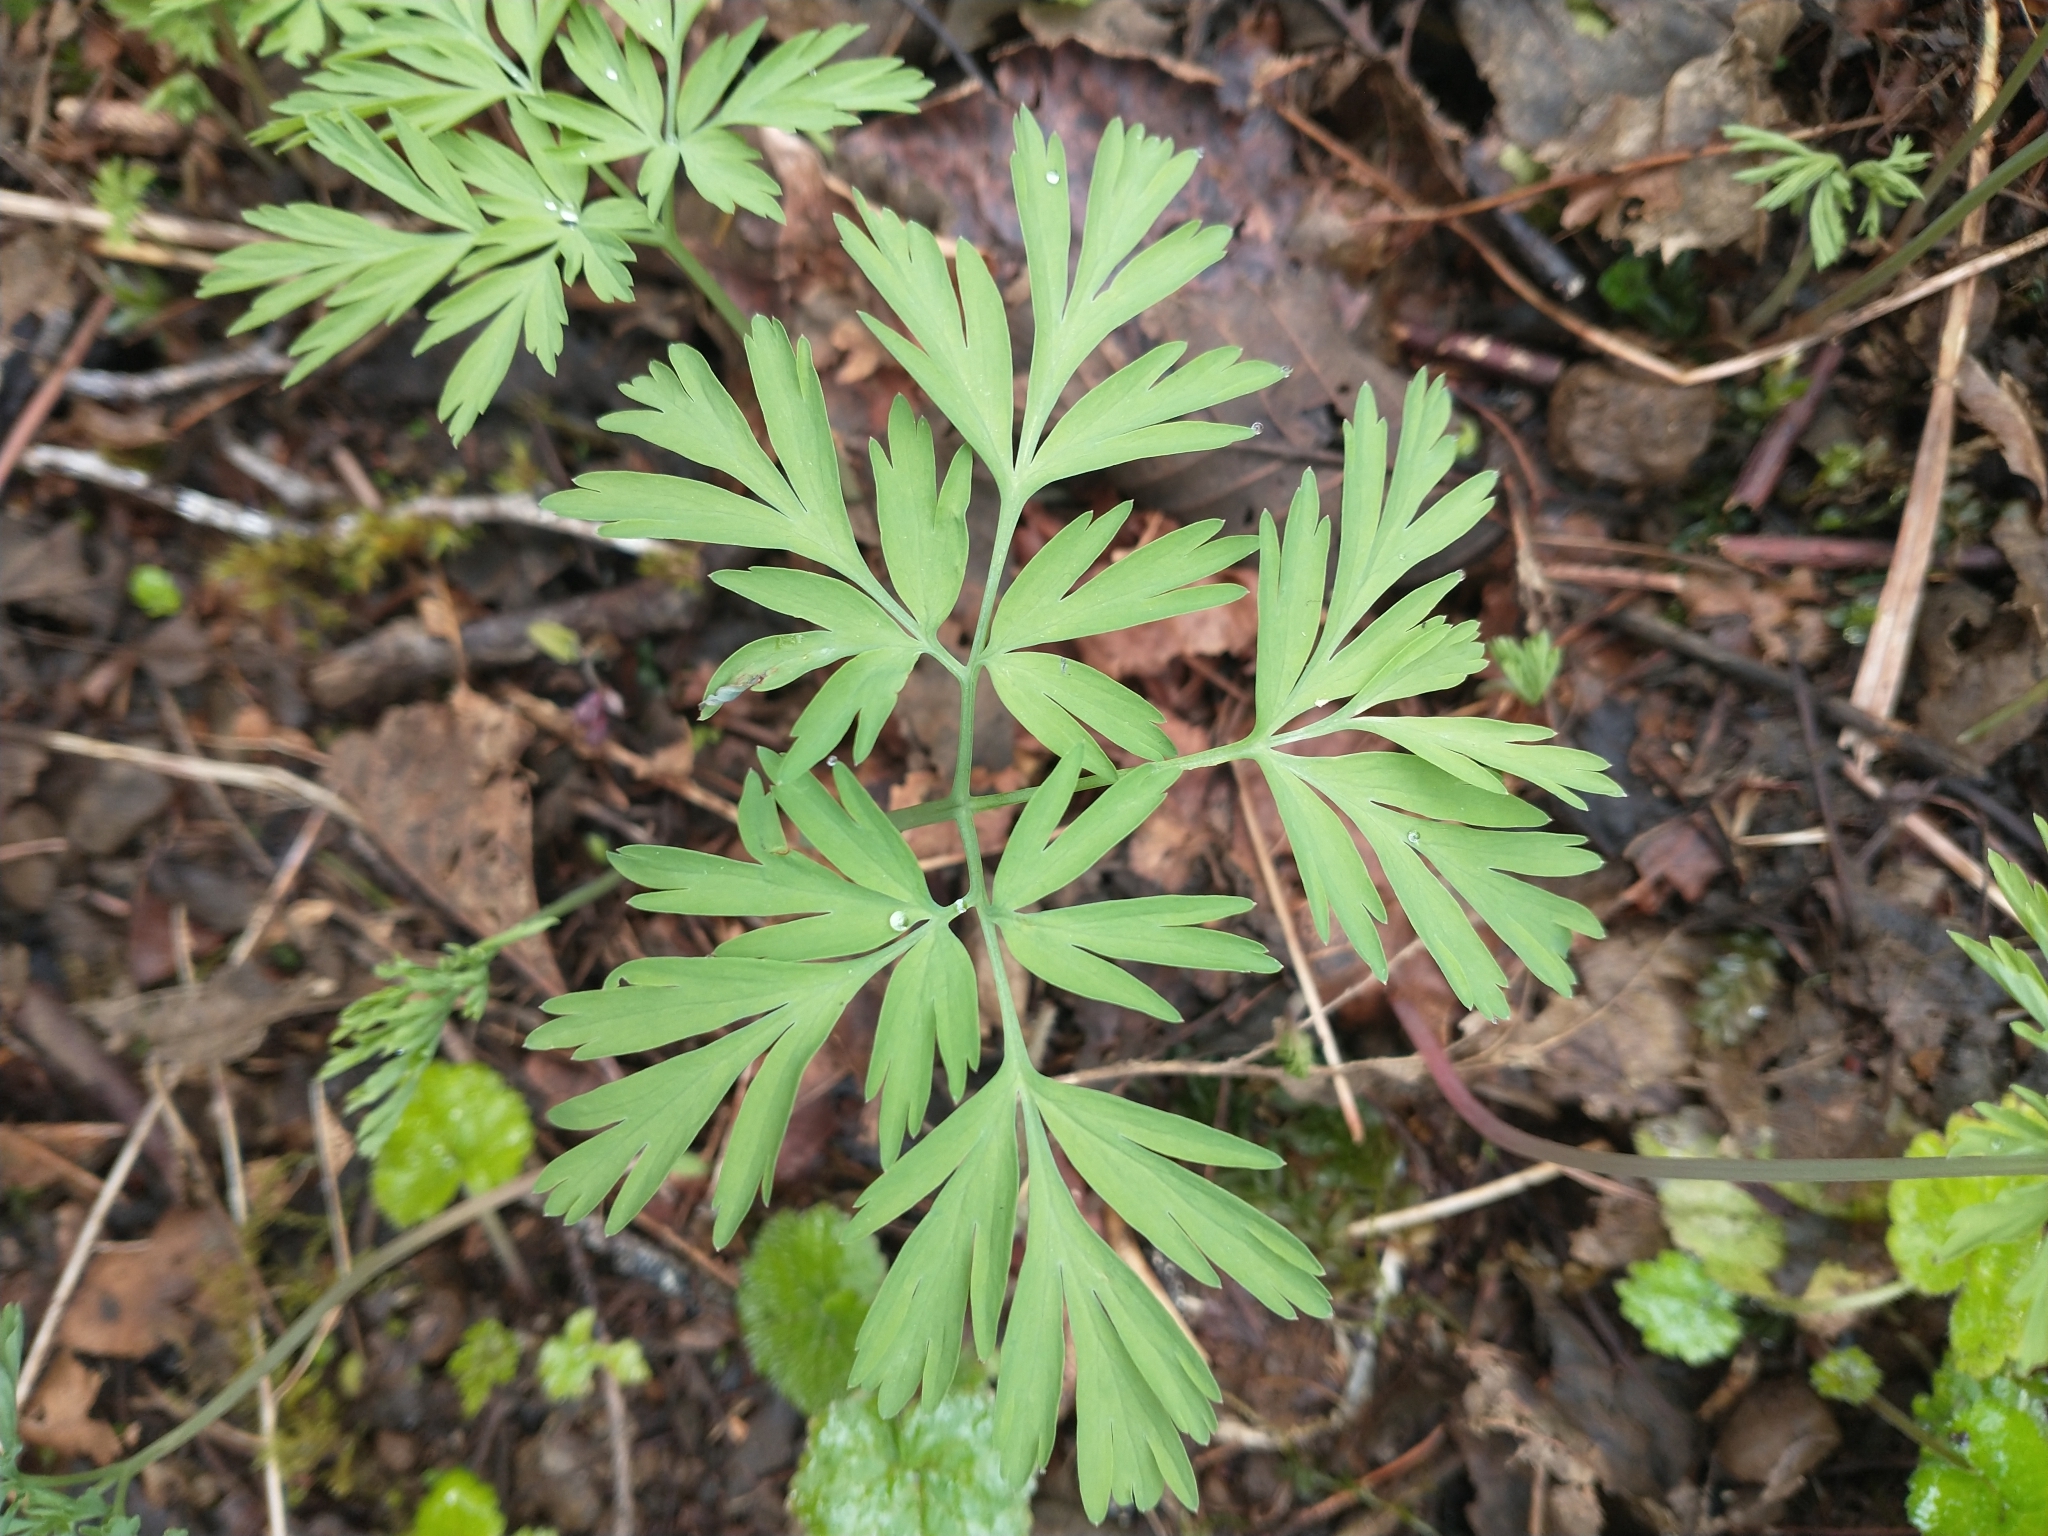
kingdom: Plantae
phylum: Tracheophyta
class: Magnoliopsida
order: Ranunculales
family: Papaveraceae
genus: Dicentra
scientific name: Dicentra formosa
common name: Bleeding-heart
